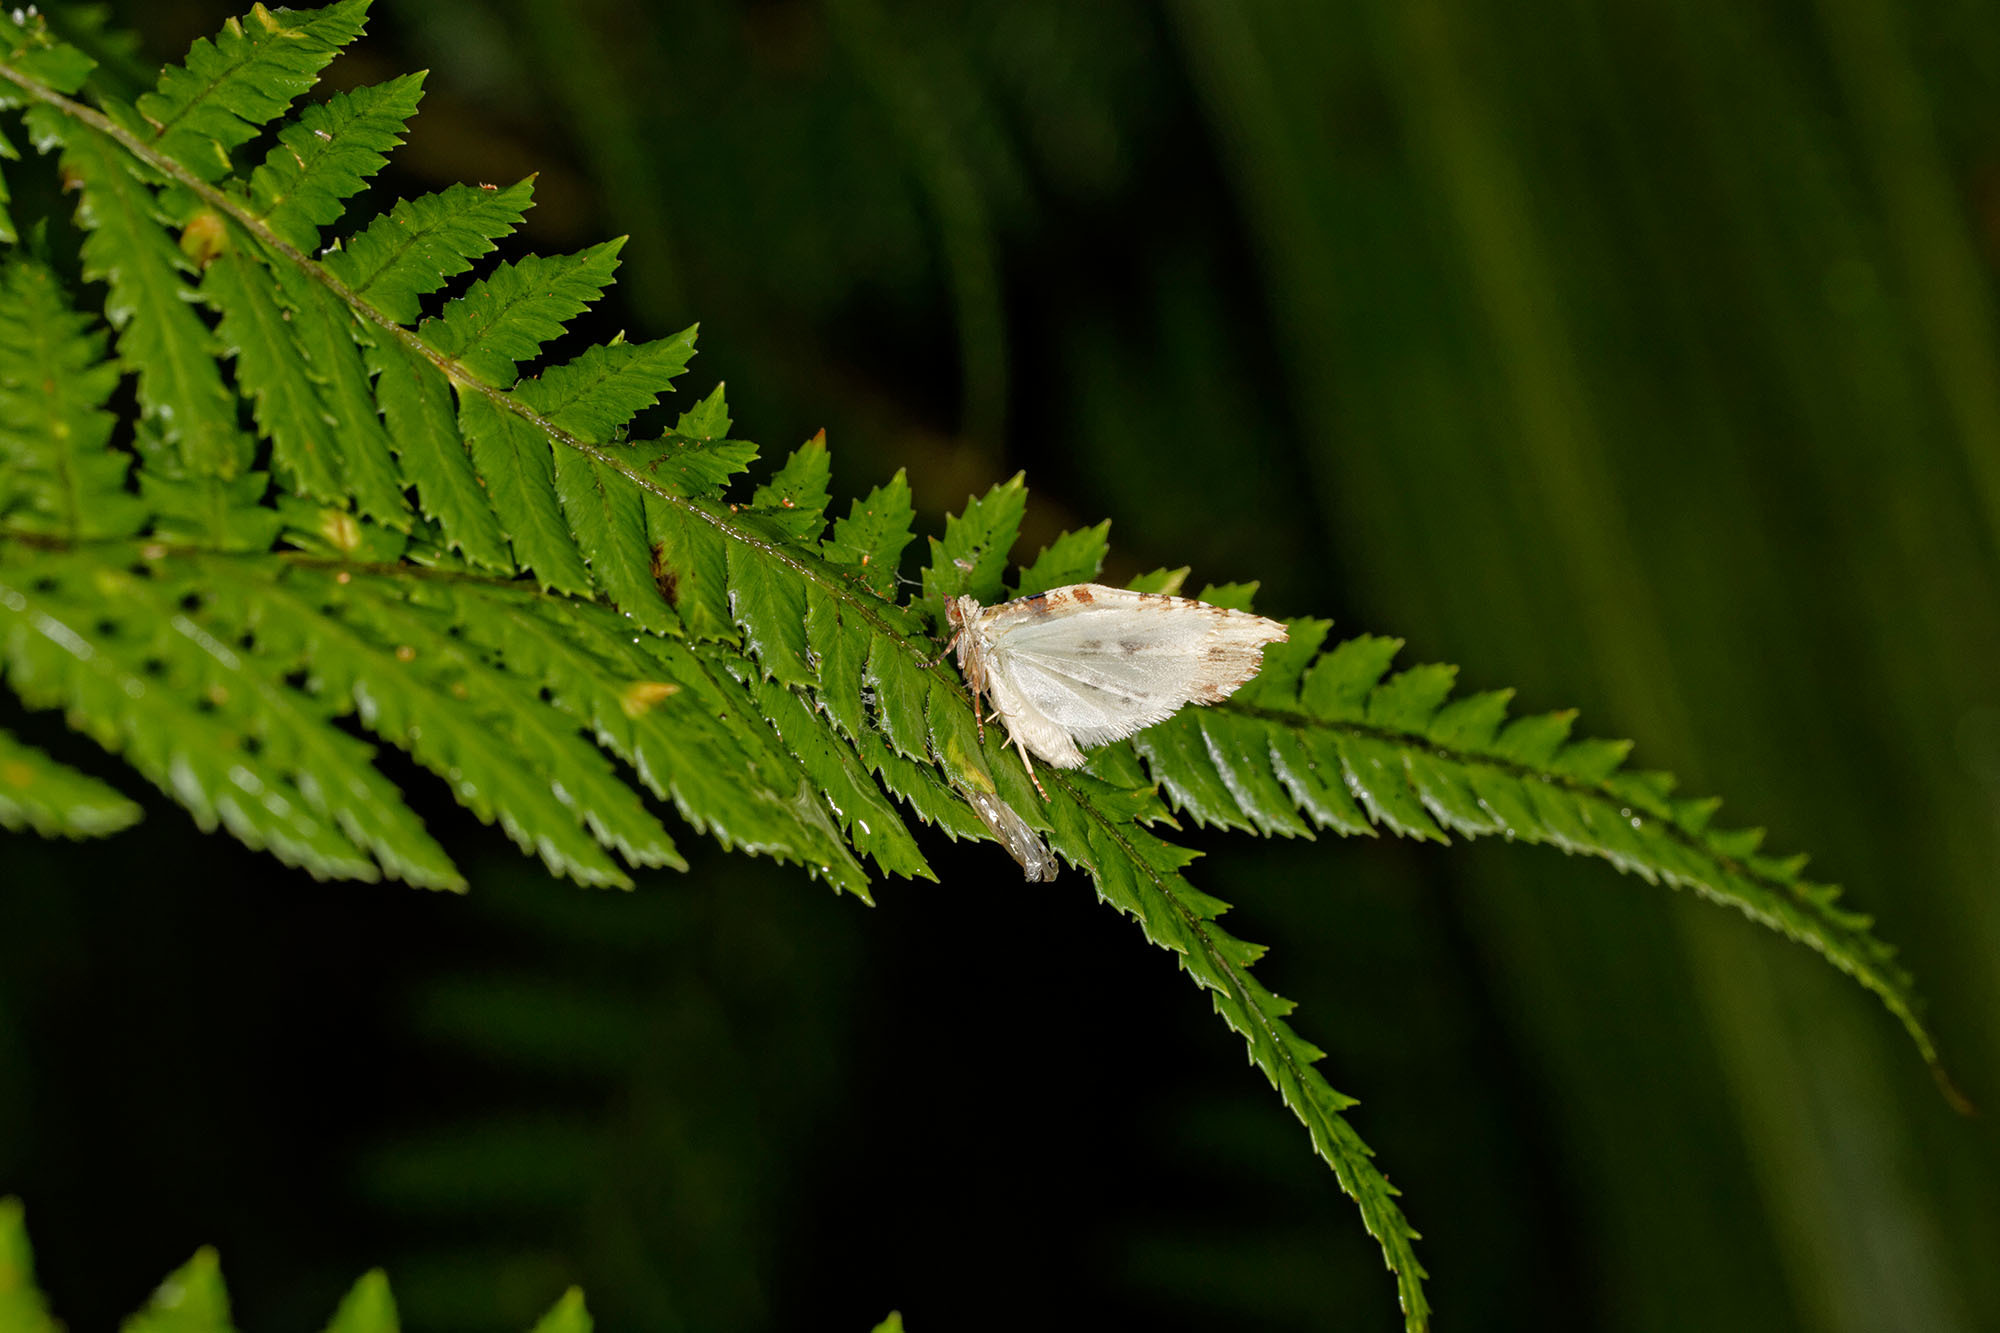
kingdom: Animalia
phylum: Arthropoda
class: Insecta
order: Lepidoptera
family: Tortricidae
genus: Epalxiphora
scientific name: Epalxiphora axenana
